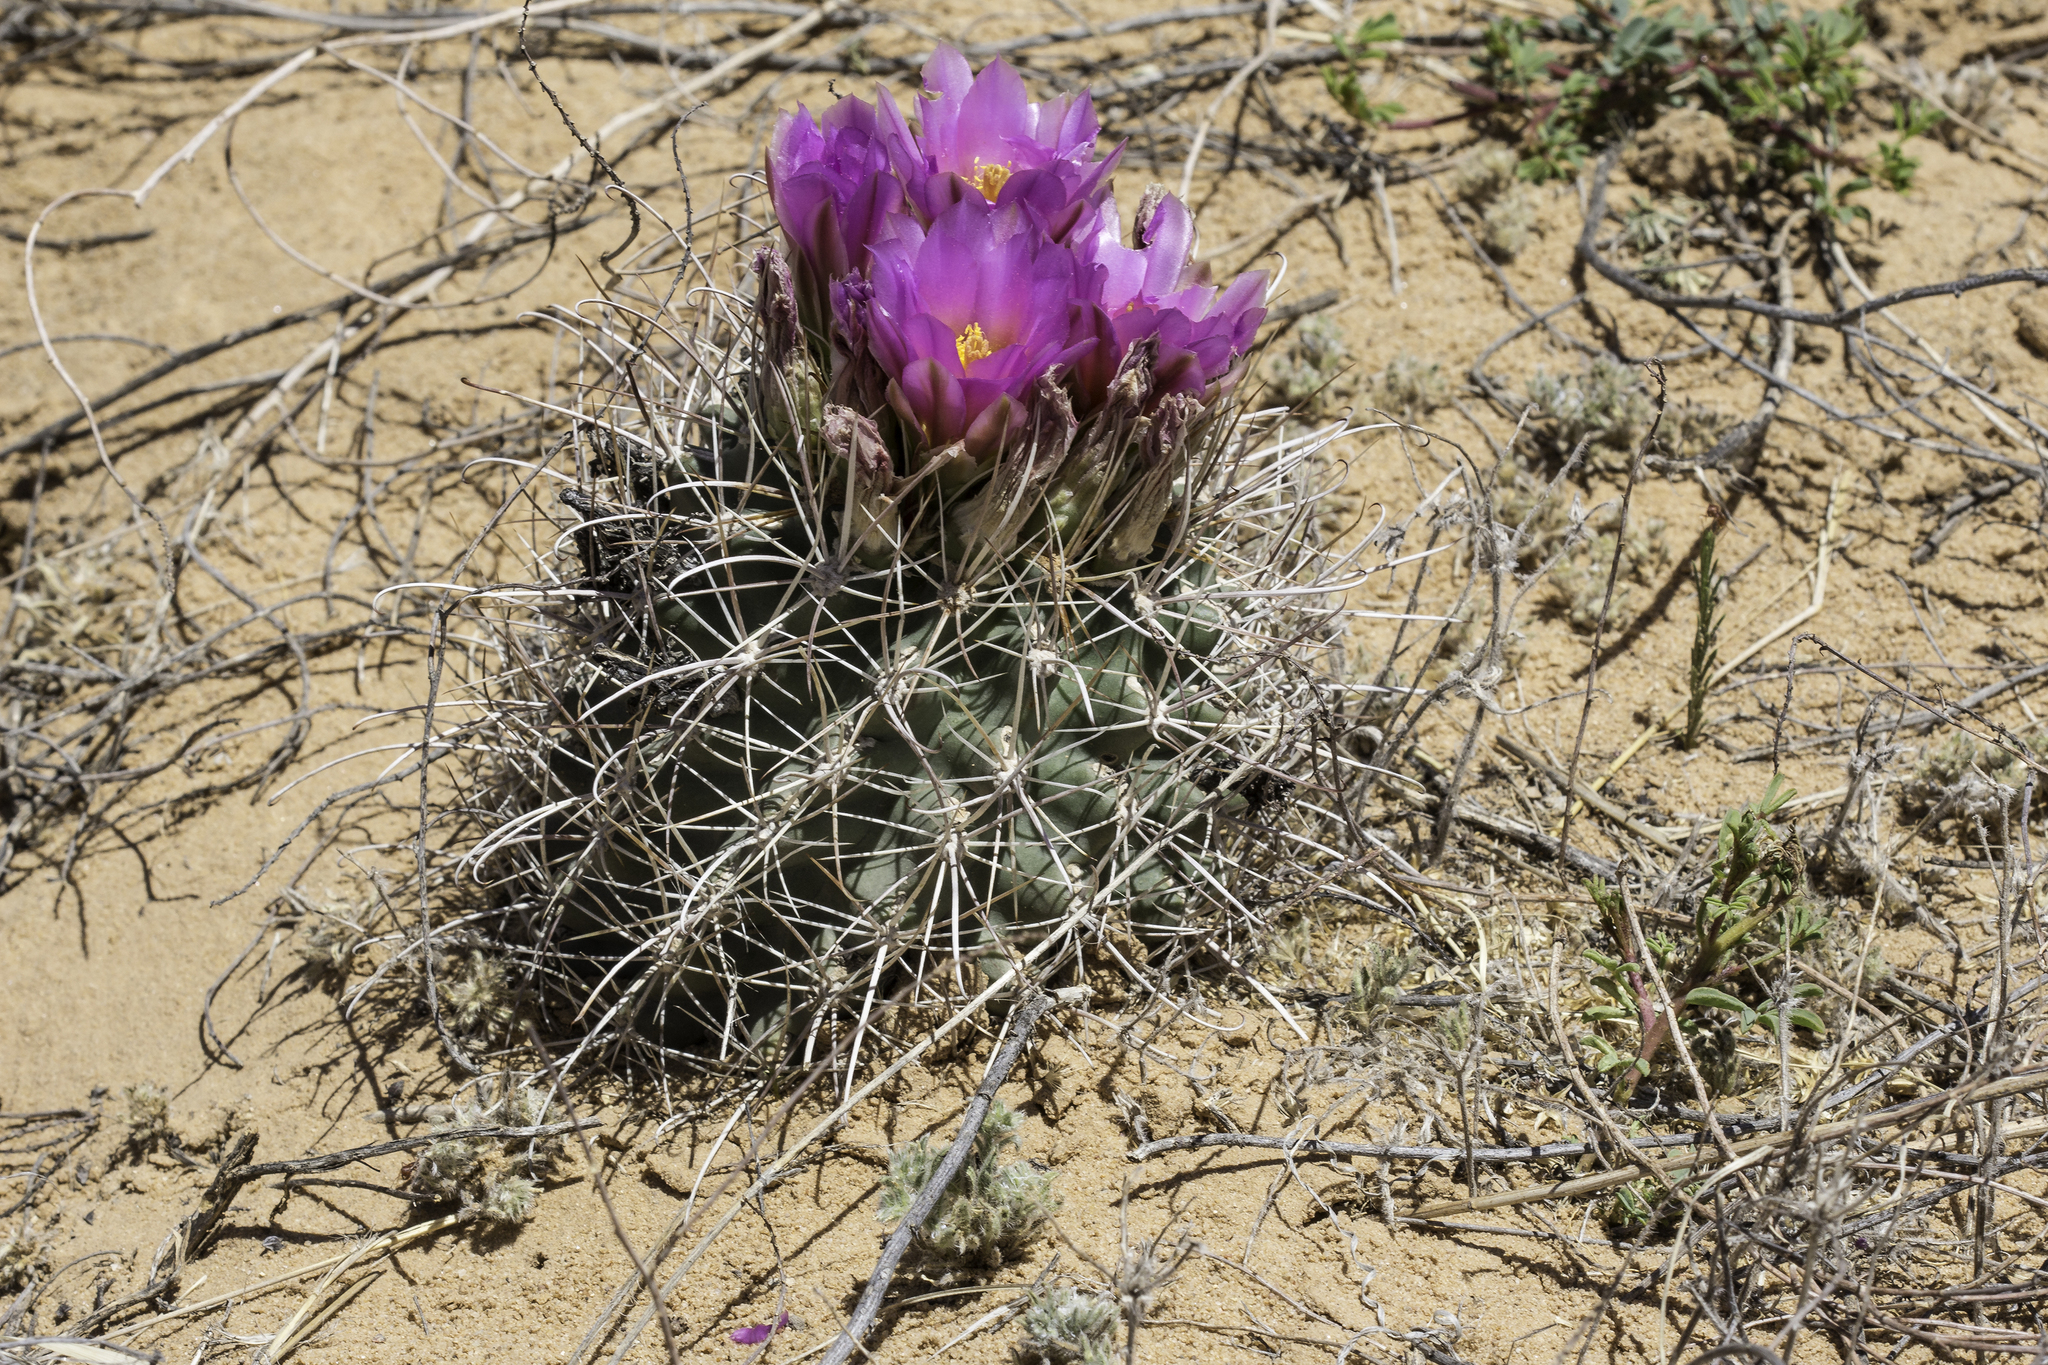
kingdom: Plantae
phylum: Tracheophyta
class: Magnoliopsida
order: Caryophyllales
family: Cactaceae
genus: Sclerocactus
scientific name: Sclerocactus cloverae
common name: Clover's eagle-claw cactus
